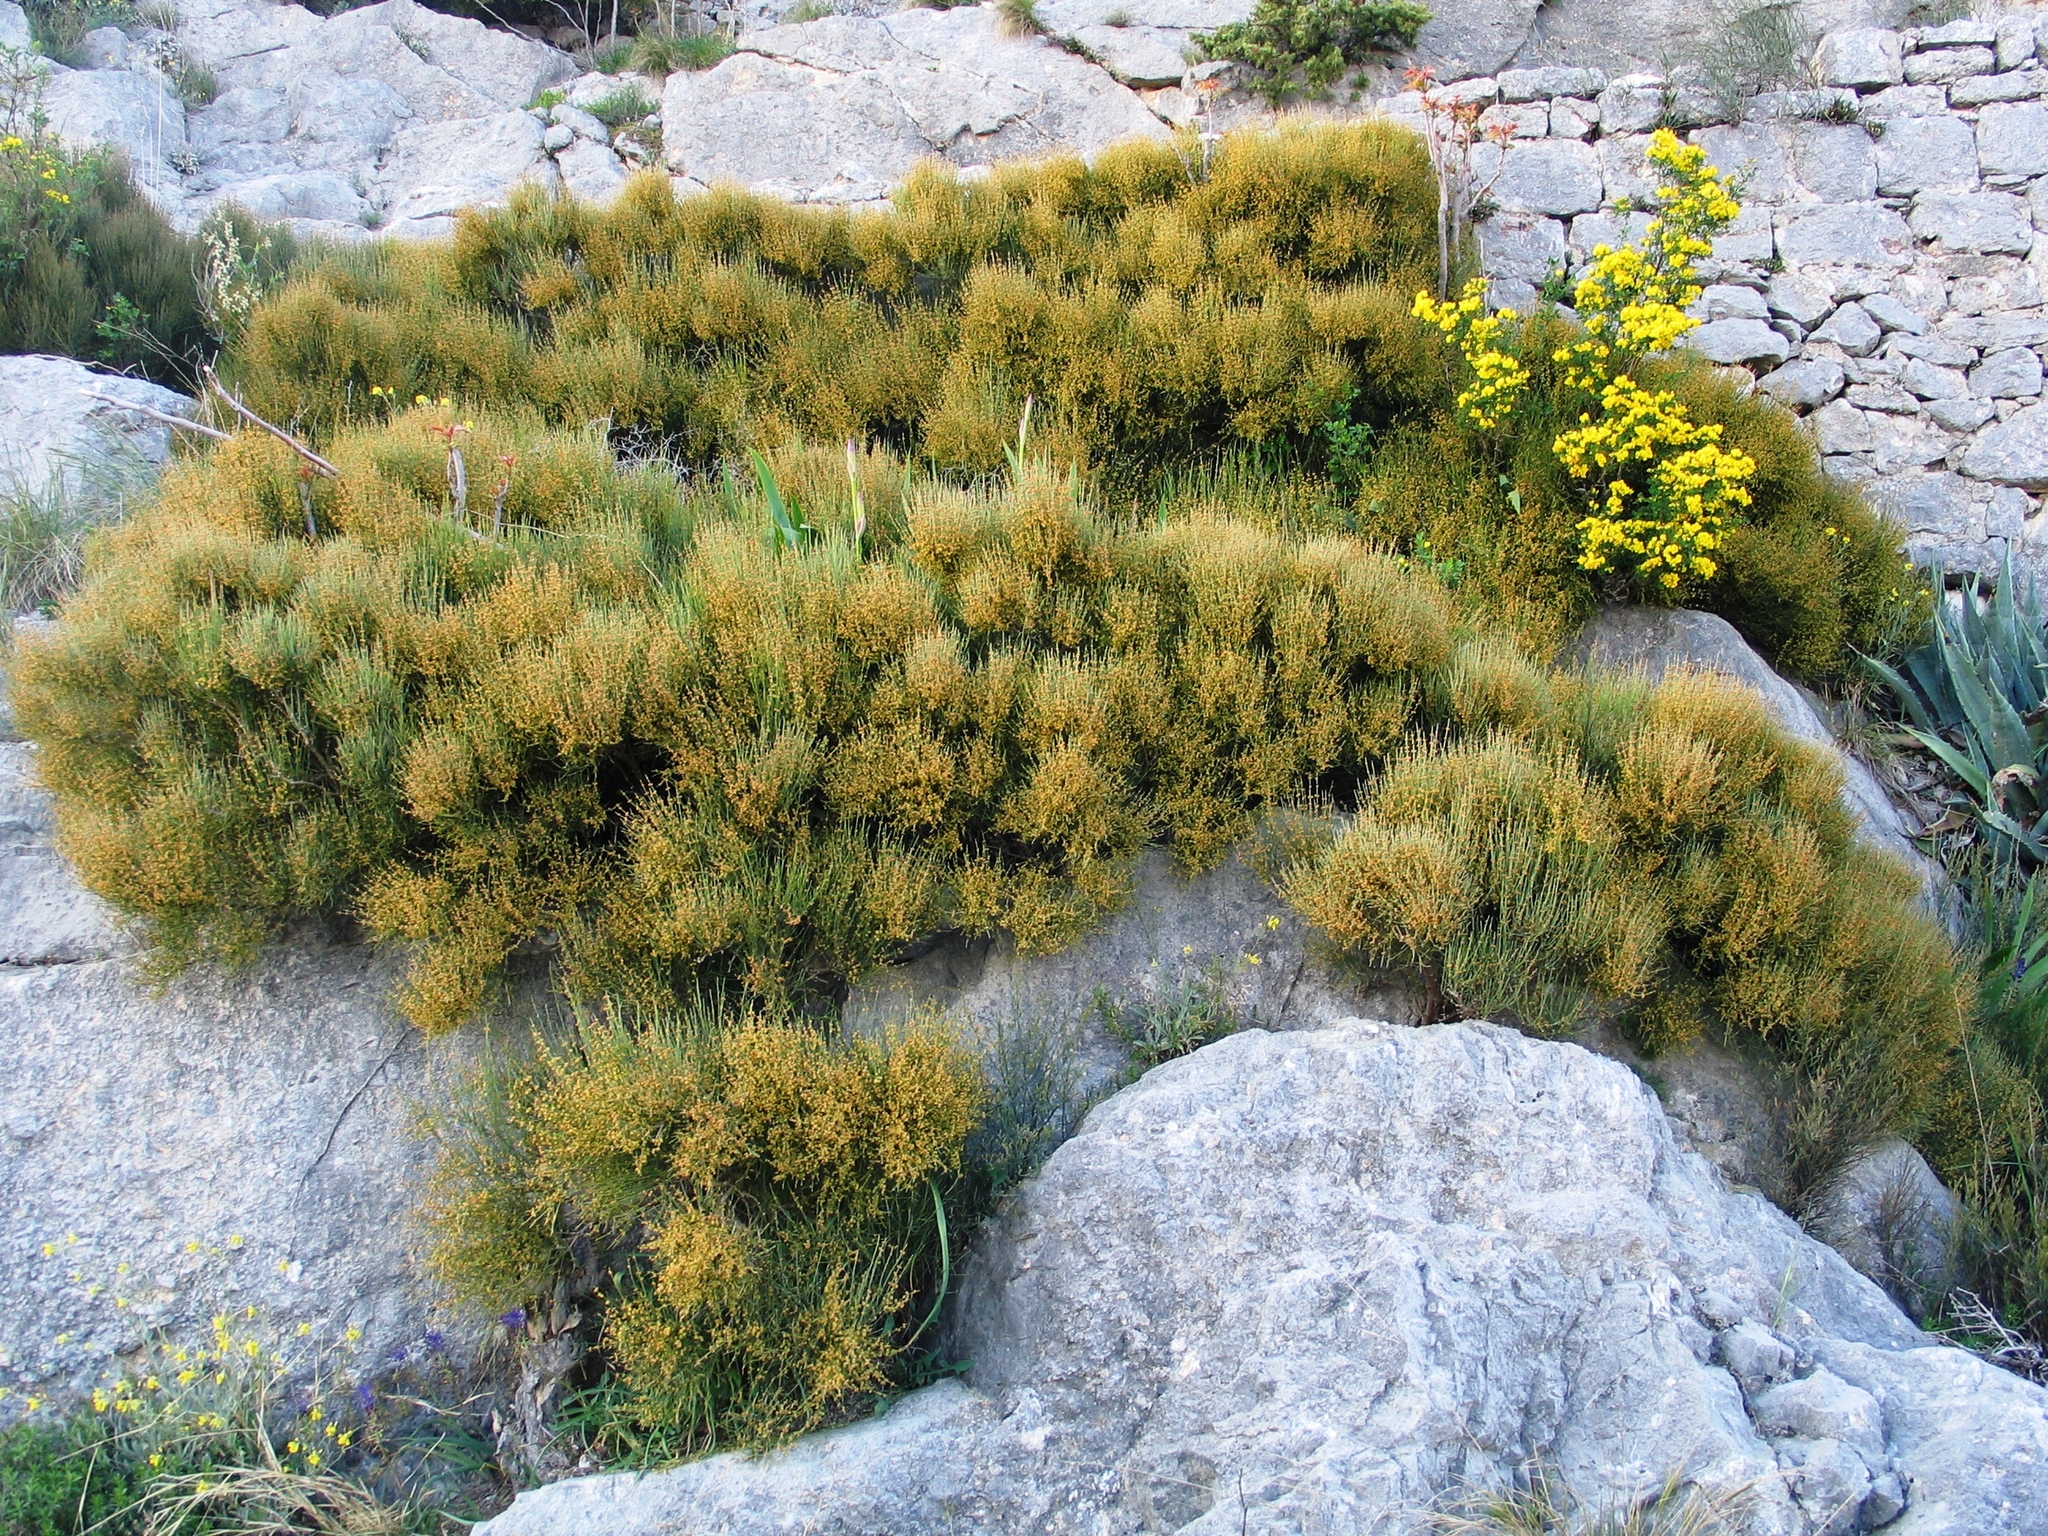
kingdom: Plantae
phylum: Tracheophyta
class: Gnetopsida
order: Ephedrales
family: Ephedraceae
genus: Ephedra
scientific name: Ephedra procera
